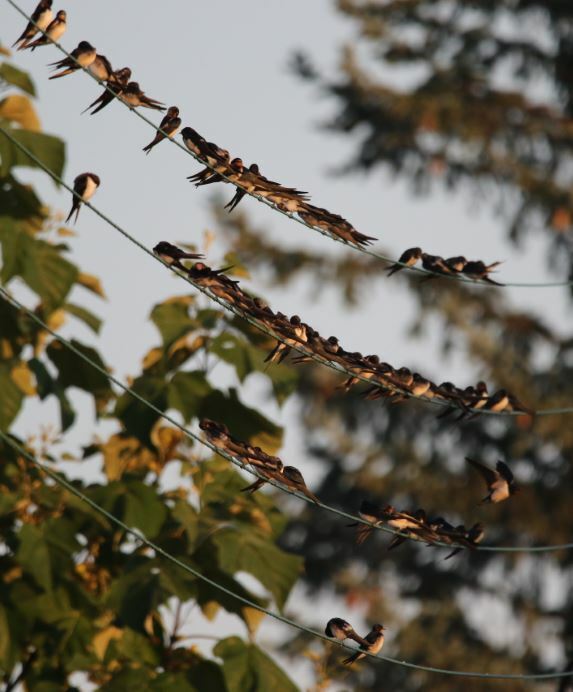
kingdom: Animalia
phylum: Chordata
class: Aves
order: Passeriformes
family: Hirundinidae
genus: Hirundo
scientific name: Hirundo rustica
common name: Barn swallow
